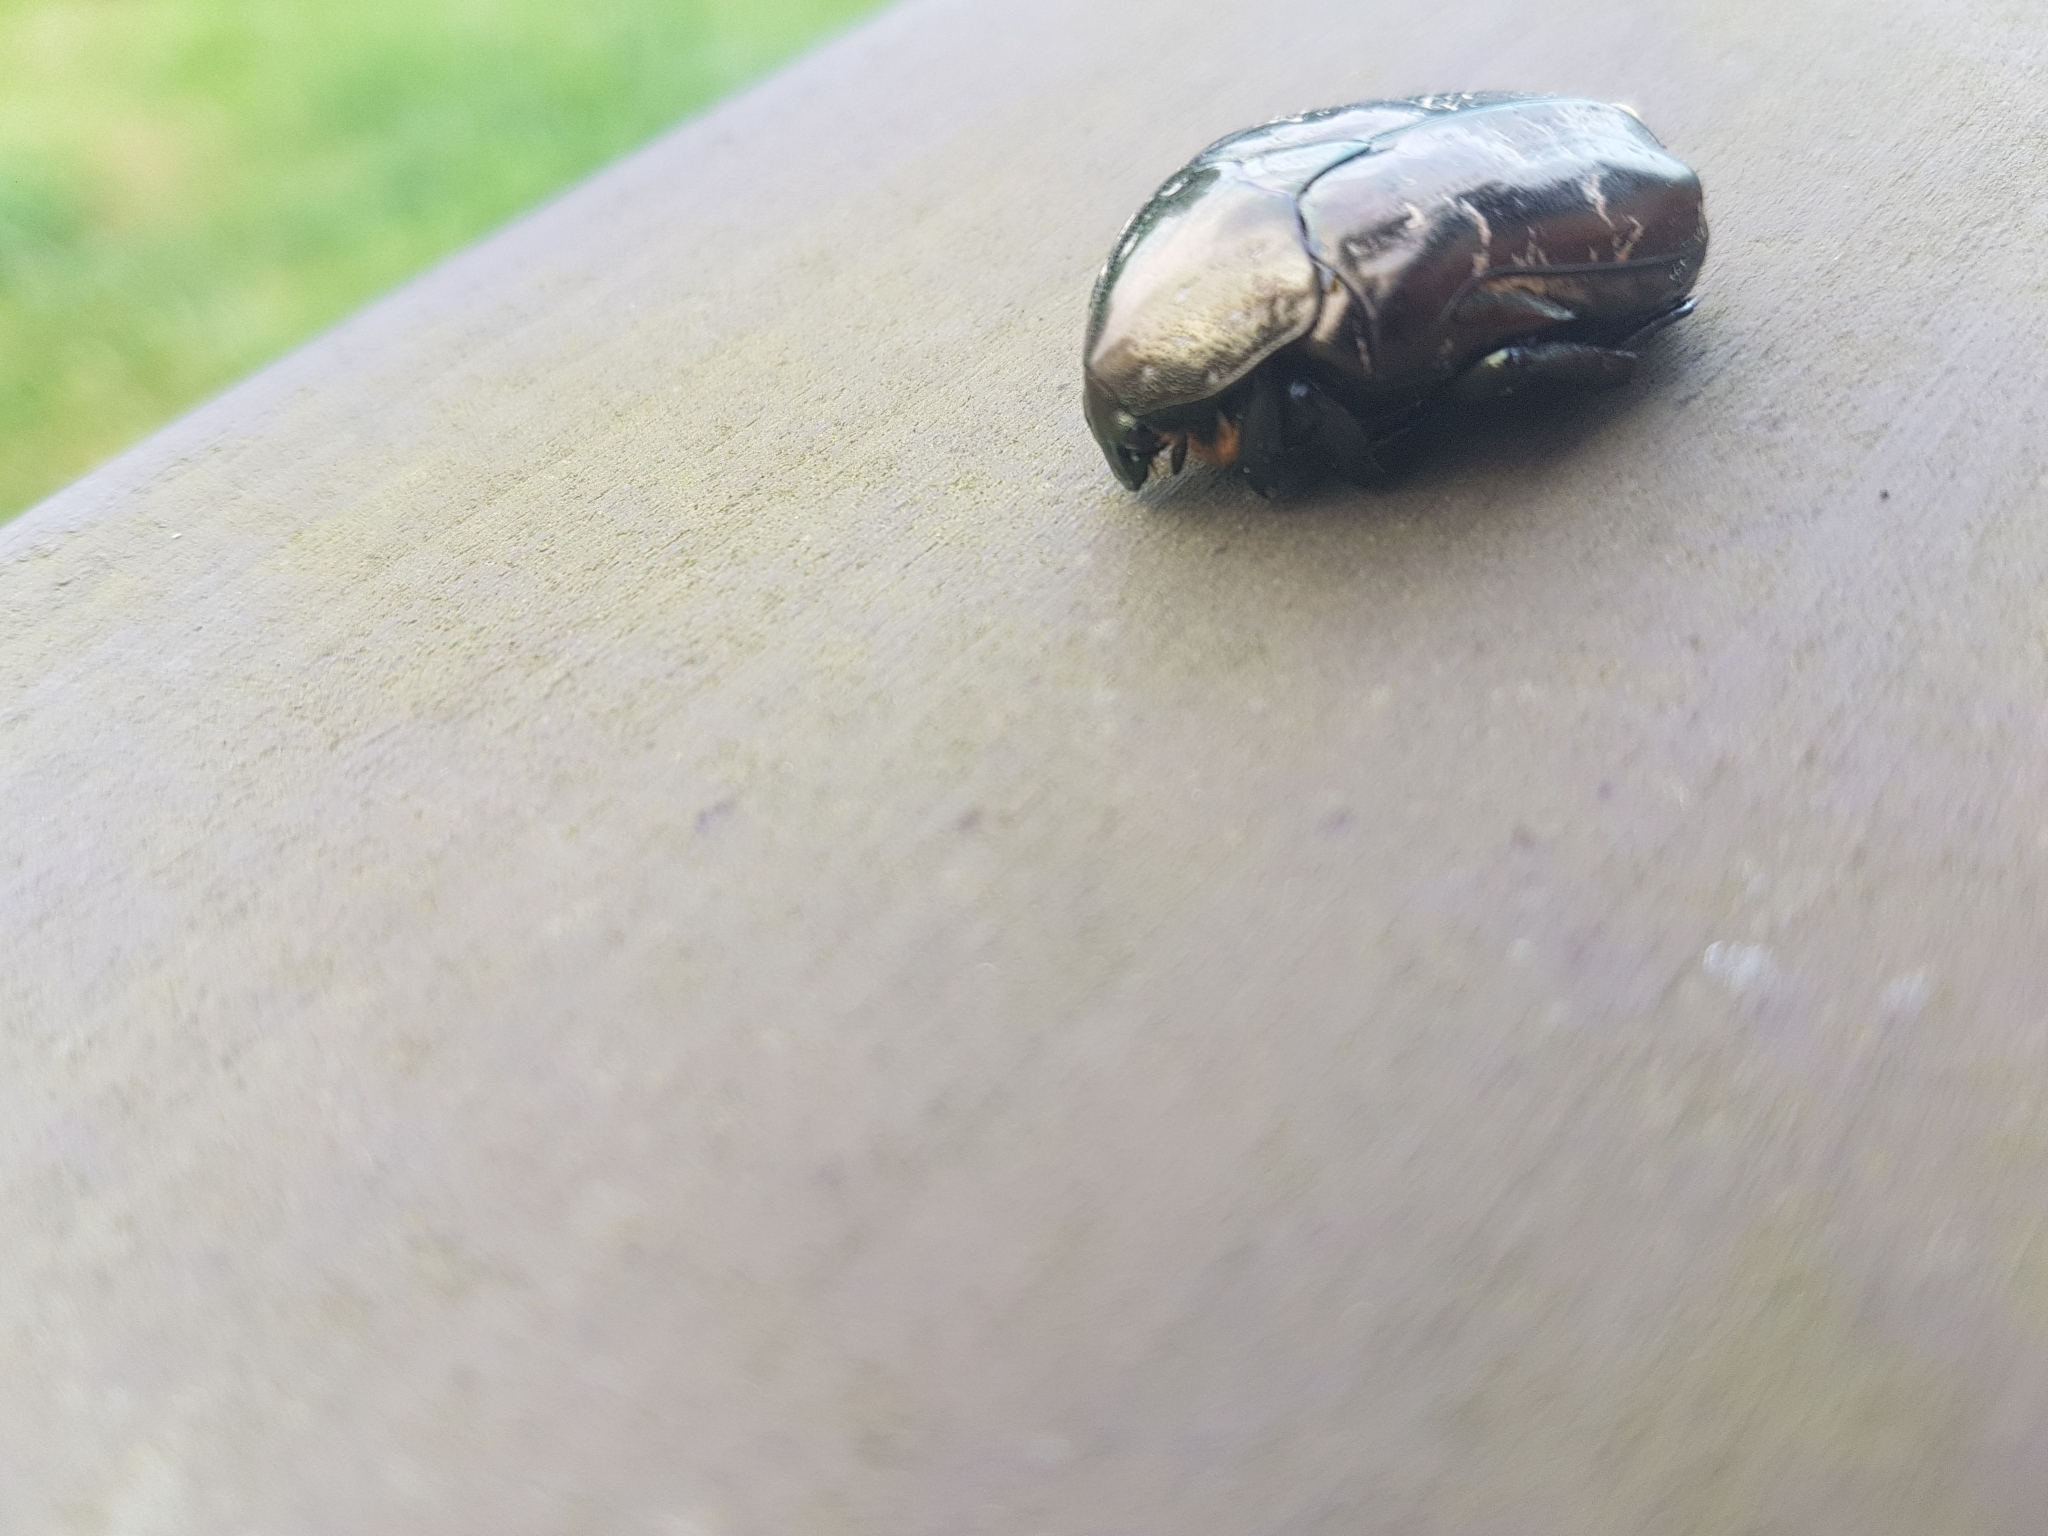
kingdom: Animalia
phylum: Arthropoda
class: Insecta
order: Coleoptera
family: Scarabaeidae
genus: Protaetia
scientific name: Protaetia marmorata
